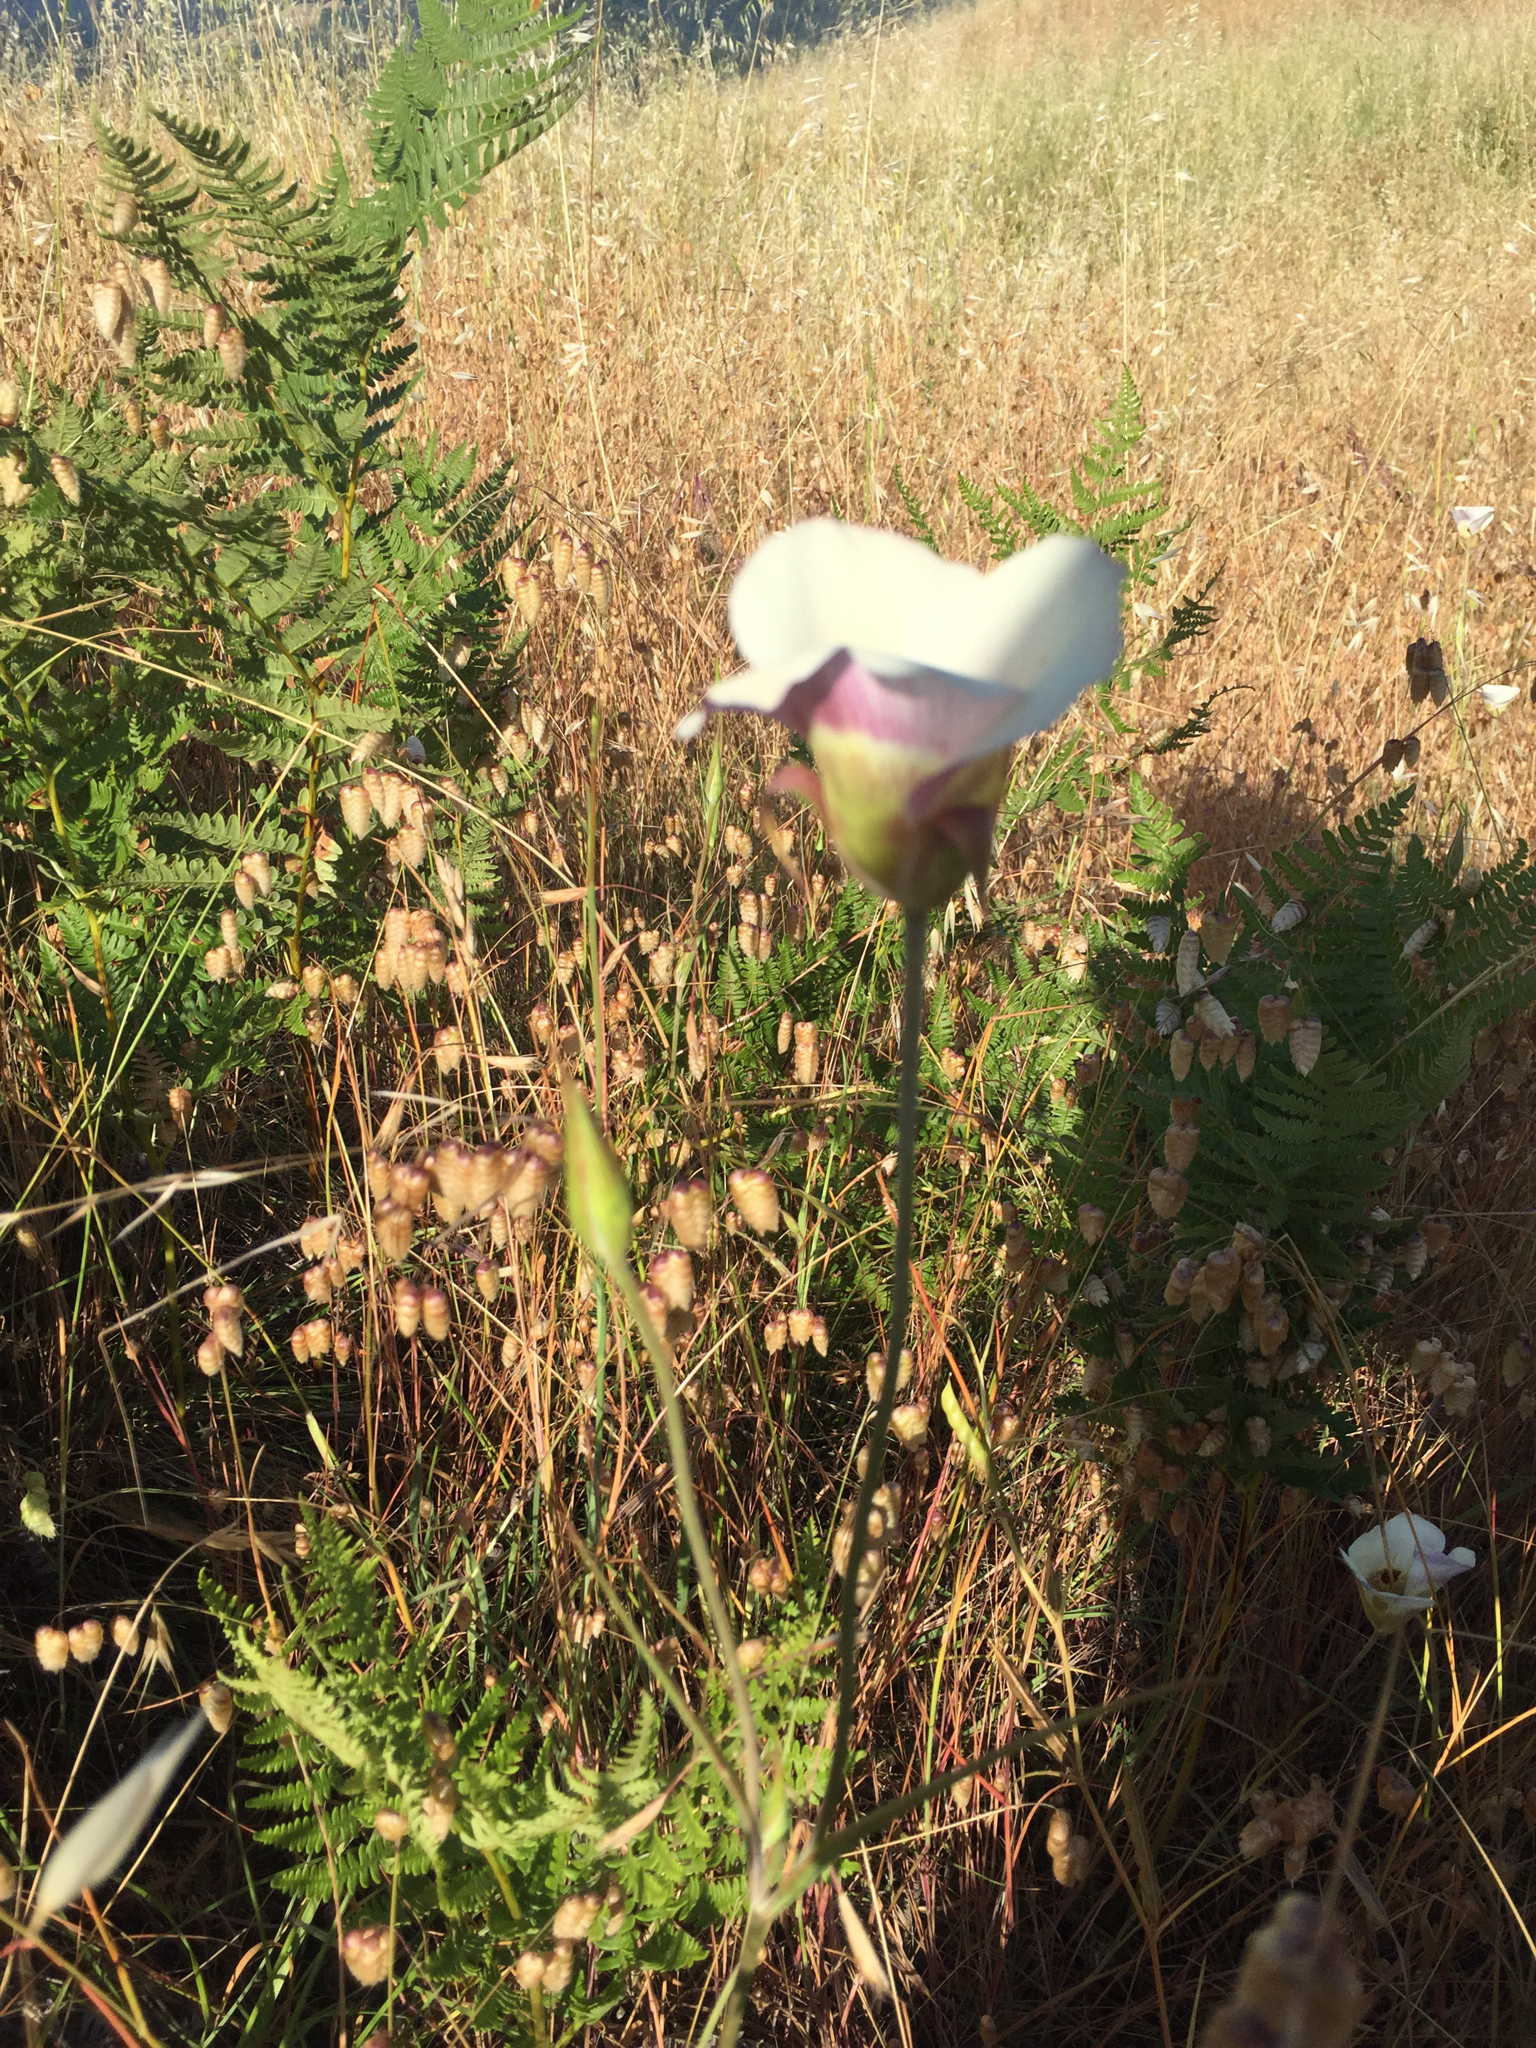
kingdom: Plantae
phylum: Tracheophyta
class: Liliopsida
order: Liliales
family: Liliaceae
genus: Calochortus
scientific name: Calochortus vestae
